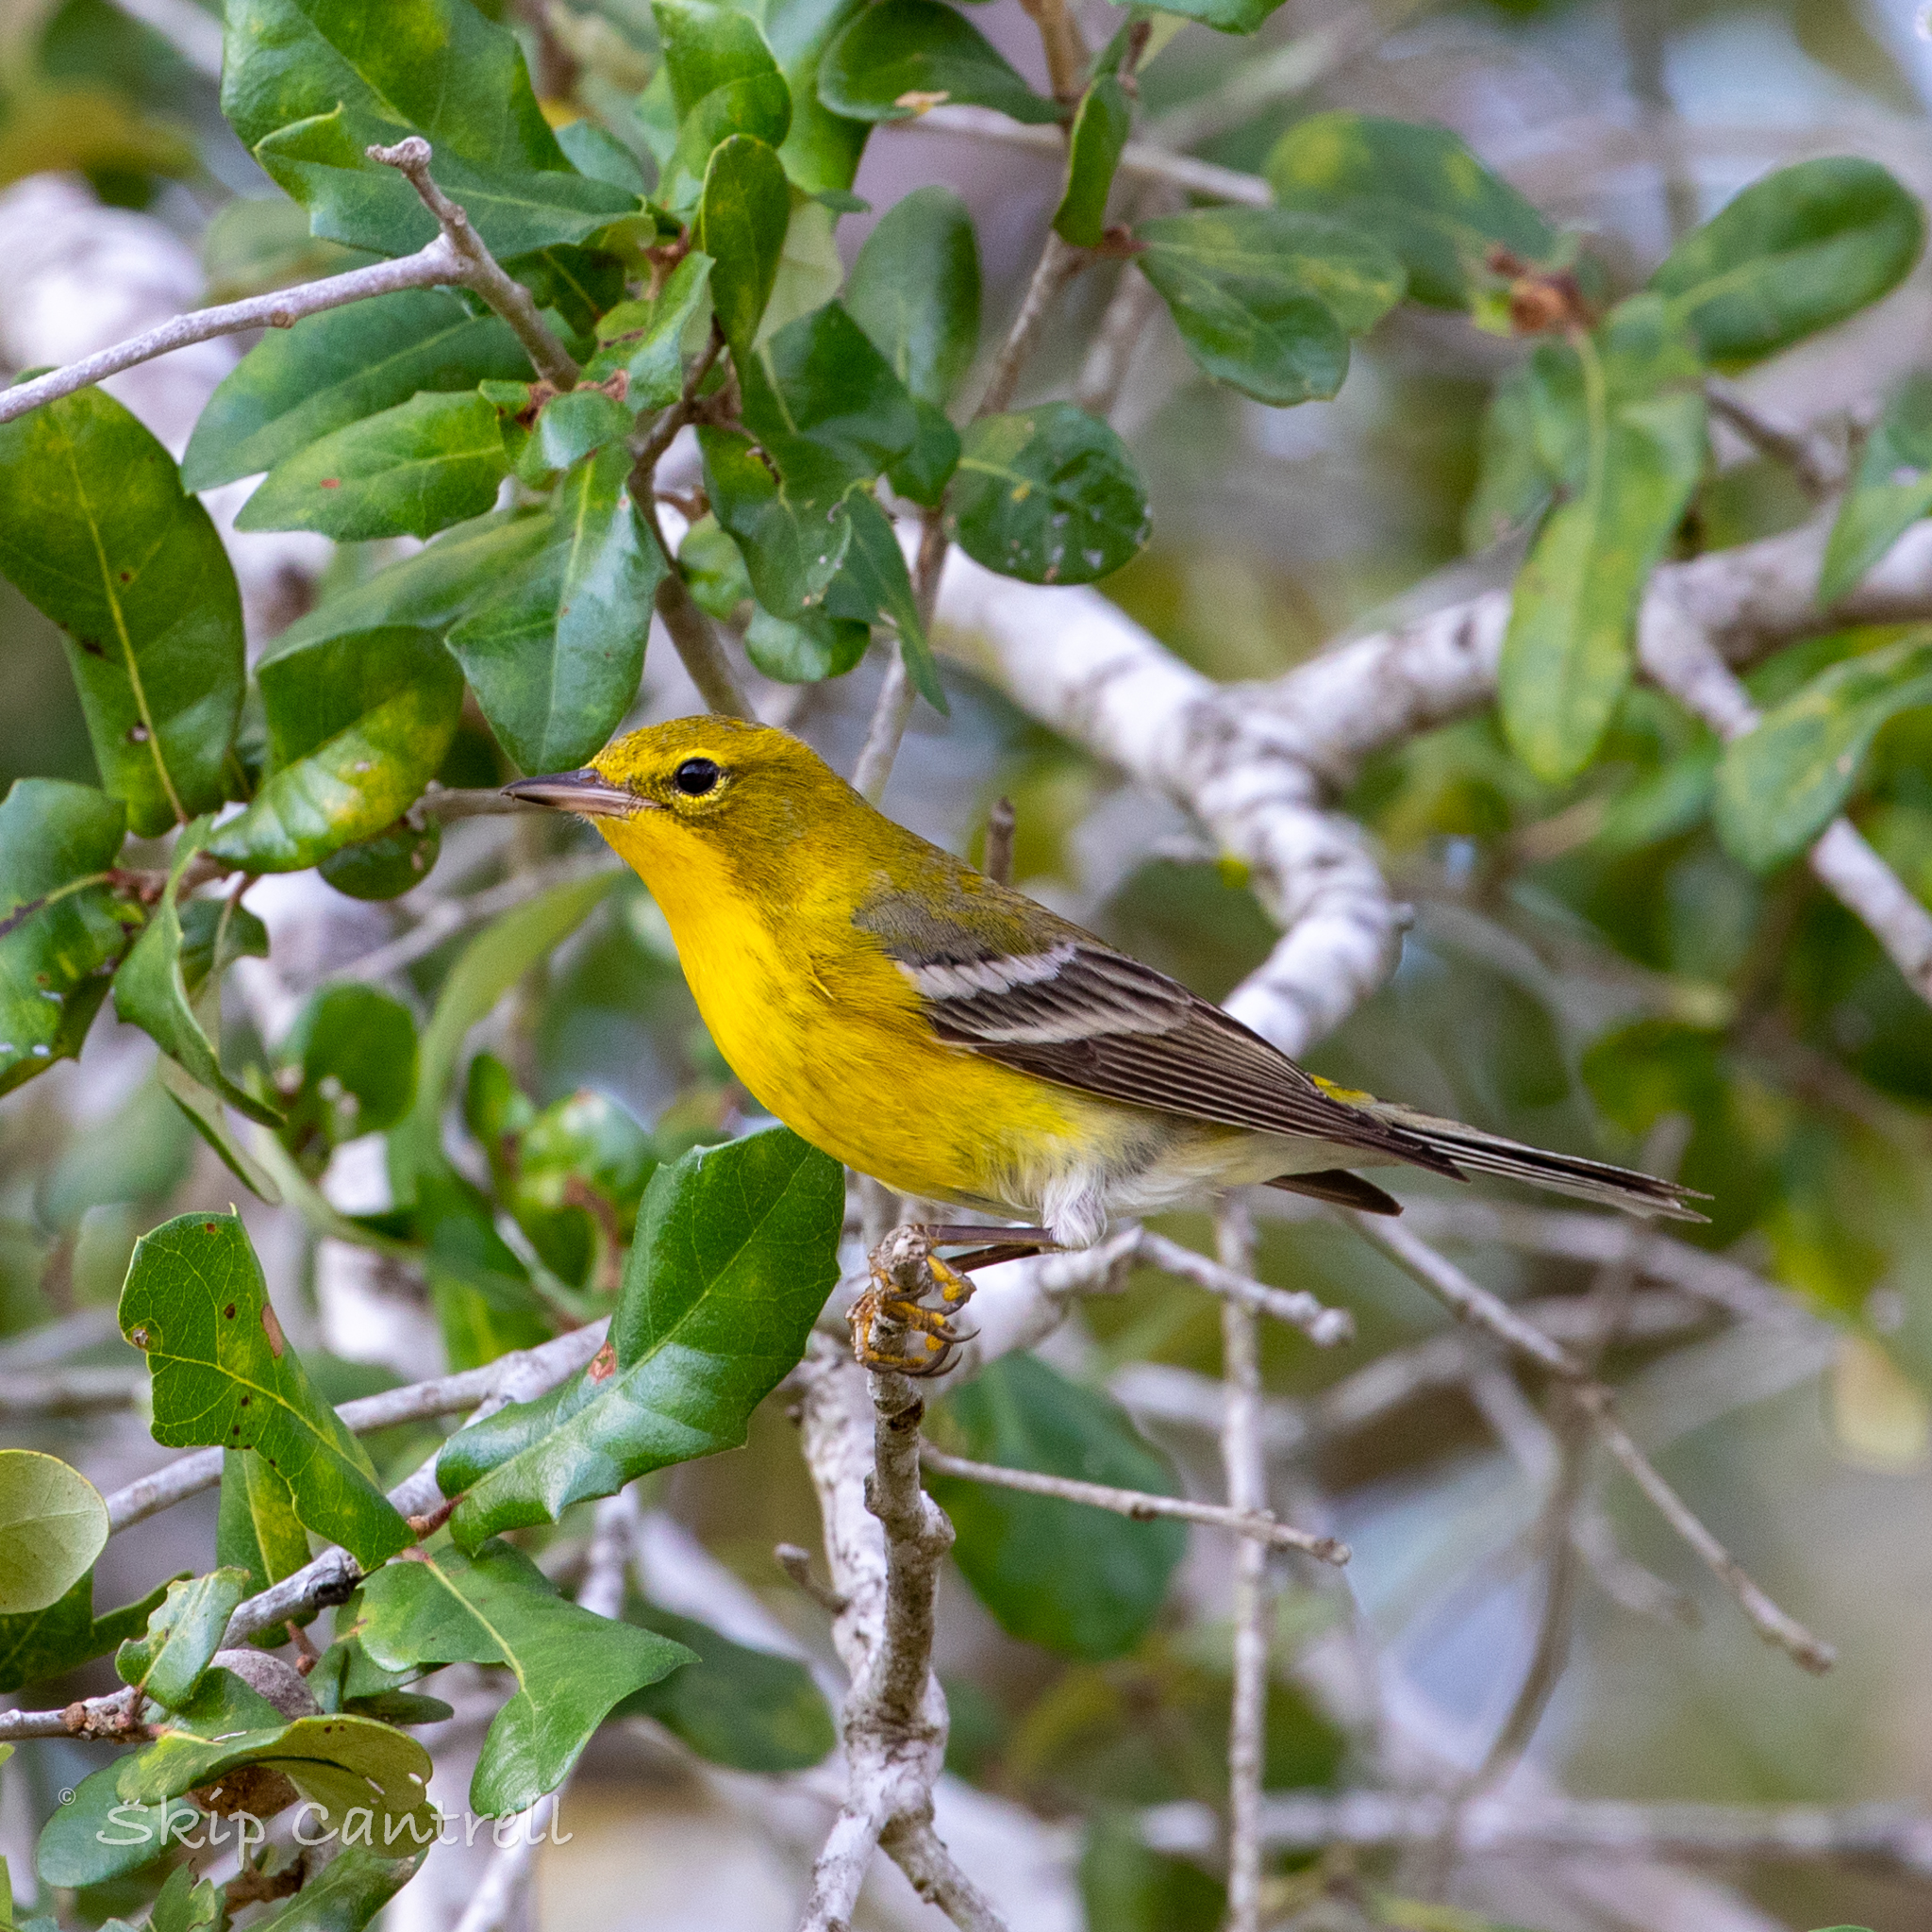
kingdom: Animalia
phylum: Chordata
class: Aves
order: Passeriformes
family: Parulidae
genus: Setophaga
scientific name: Setophaga pinus
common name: Pine warbler
